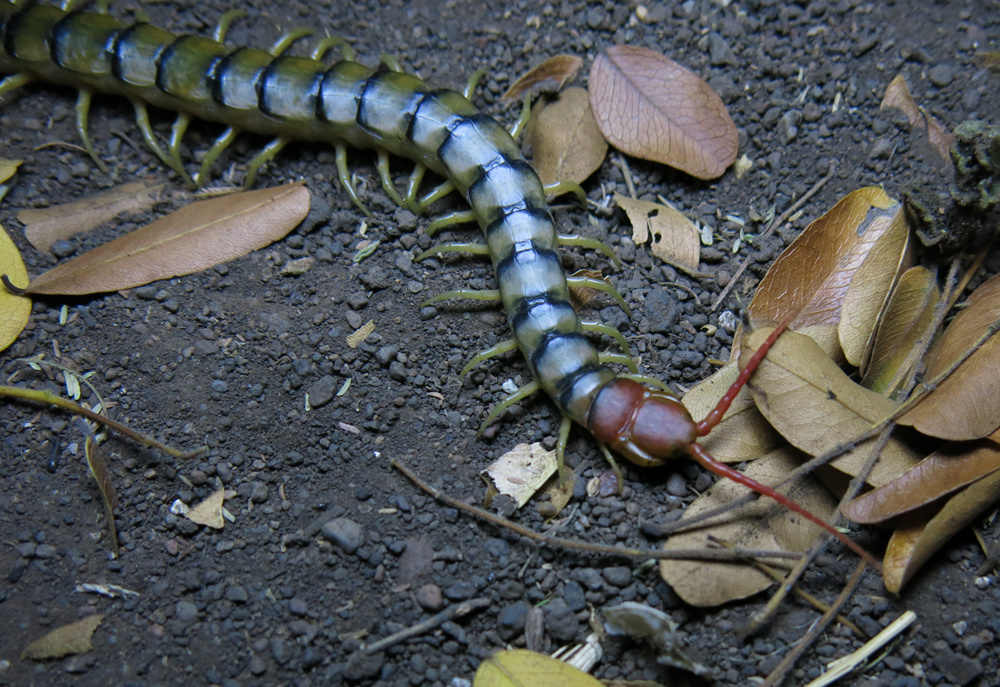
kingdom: Animalia
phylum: Arthropoda
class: Chilopoda
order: Scolopendromorpha
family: Scolopendridae
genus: Scolopendra
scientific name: Scolopendra morsitans
